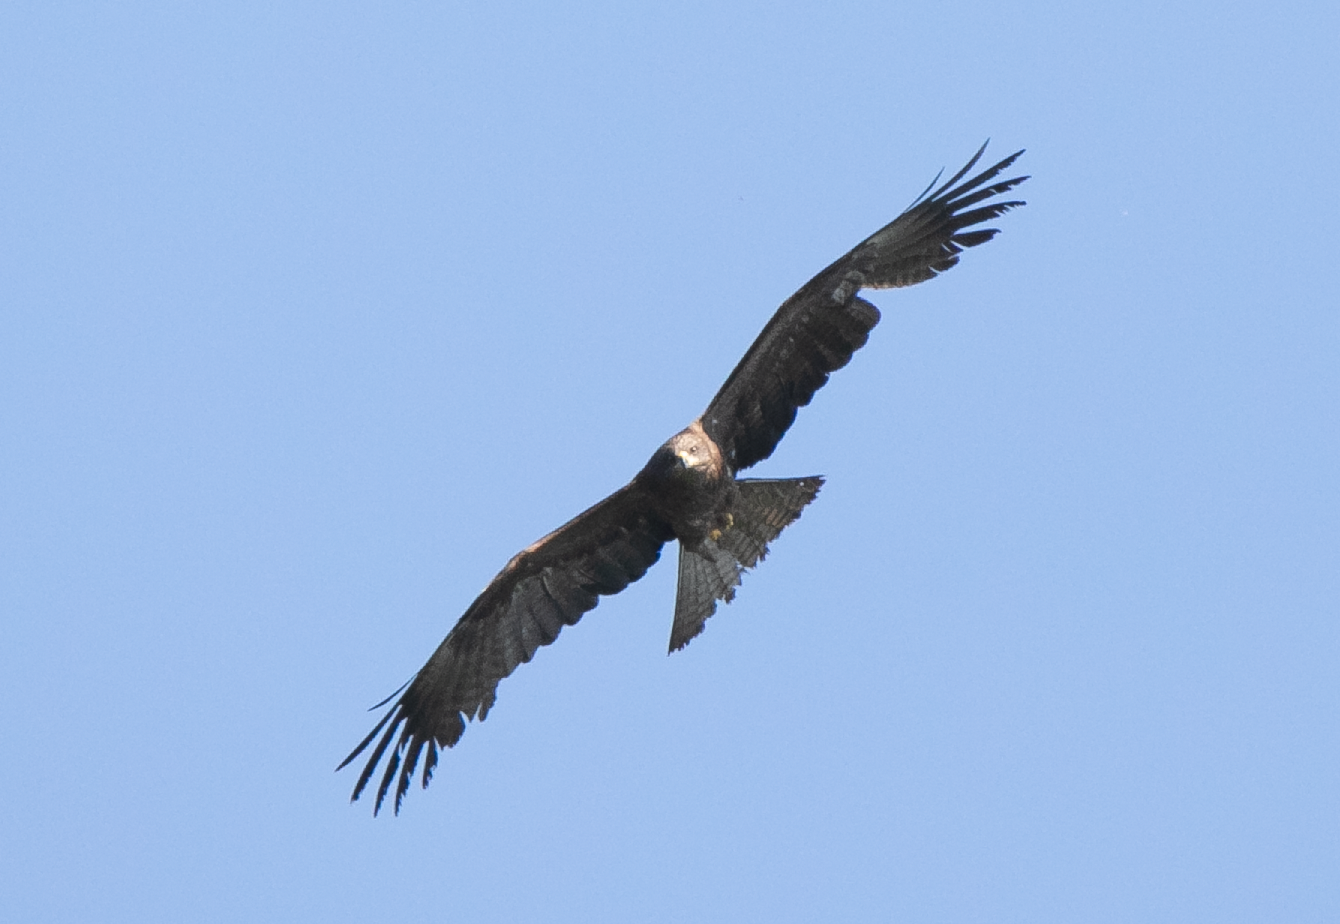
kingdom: Animalia
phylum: Chordata
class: Aves
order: Accipitriformes
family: Accipitridae
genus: Milvus
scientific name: Milvus migrans
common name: Black kite
